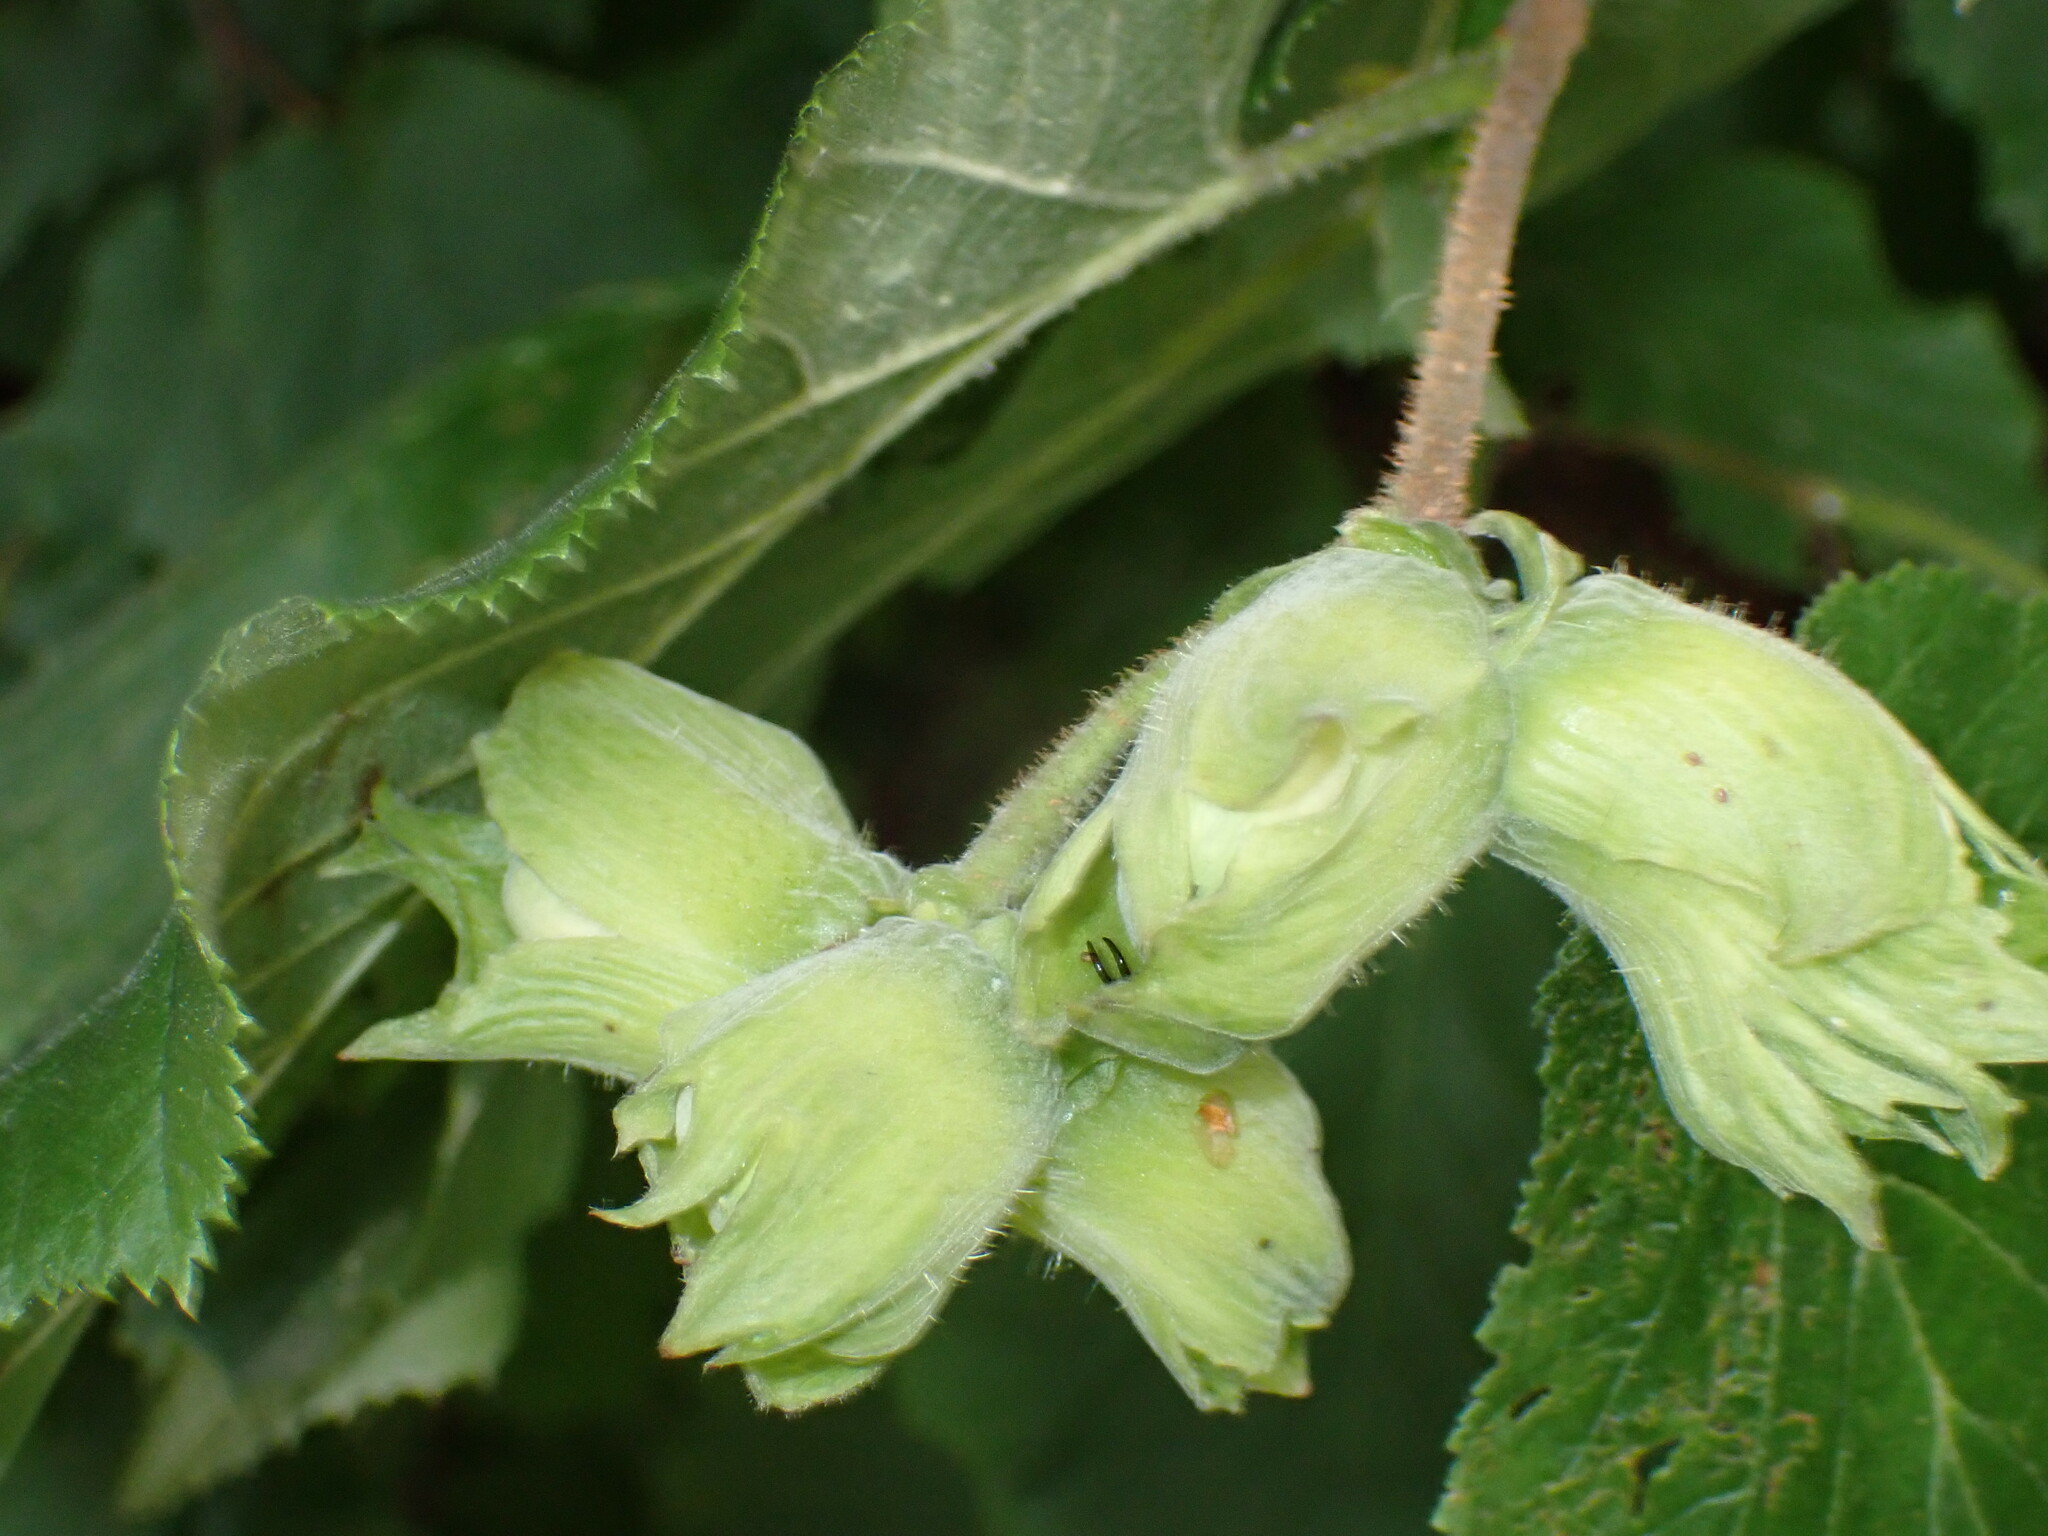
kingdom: Plantae
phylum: Tracheophyta
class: Magnoliopsida
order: Fagales
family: Betulaceae
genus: Corylus
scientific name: Corylus avellana
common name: European hazel
